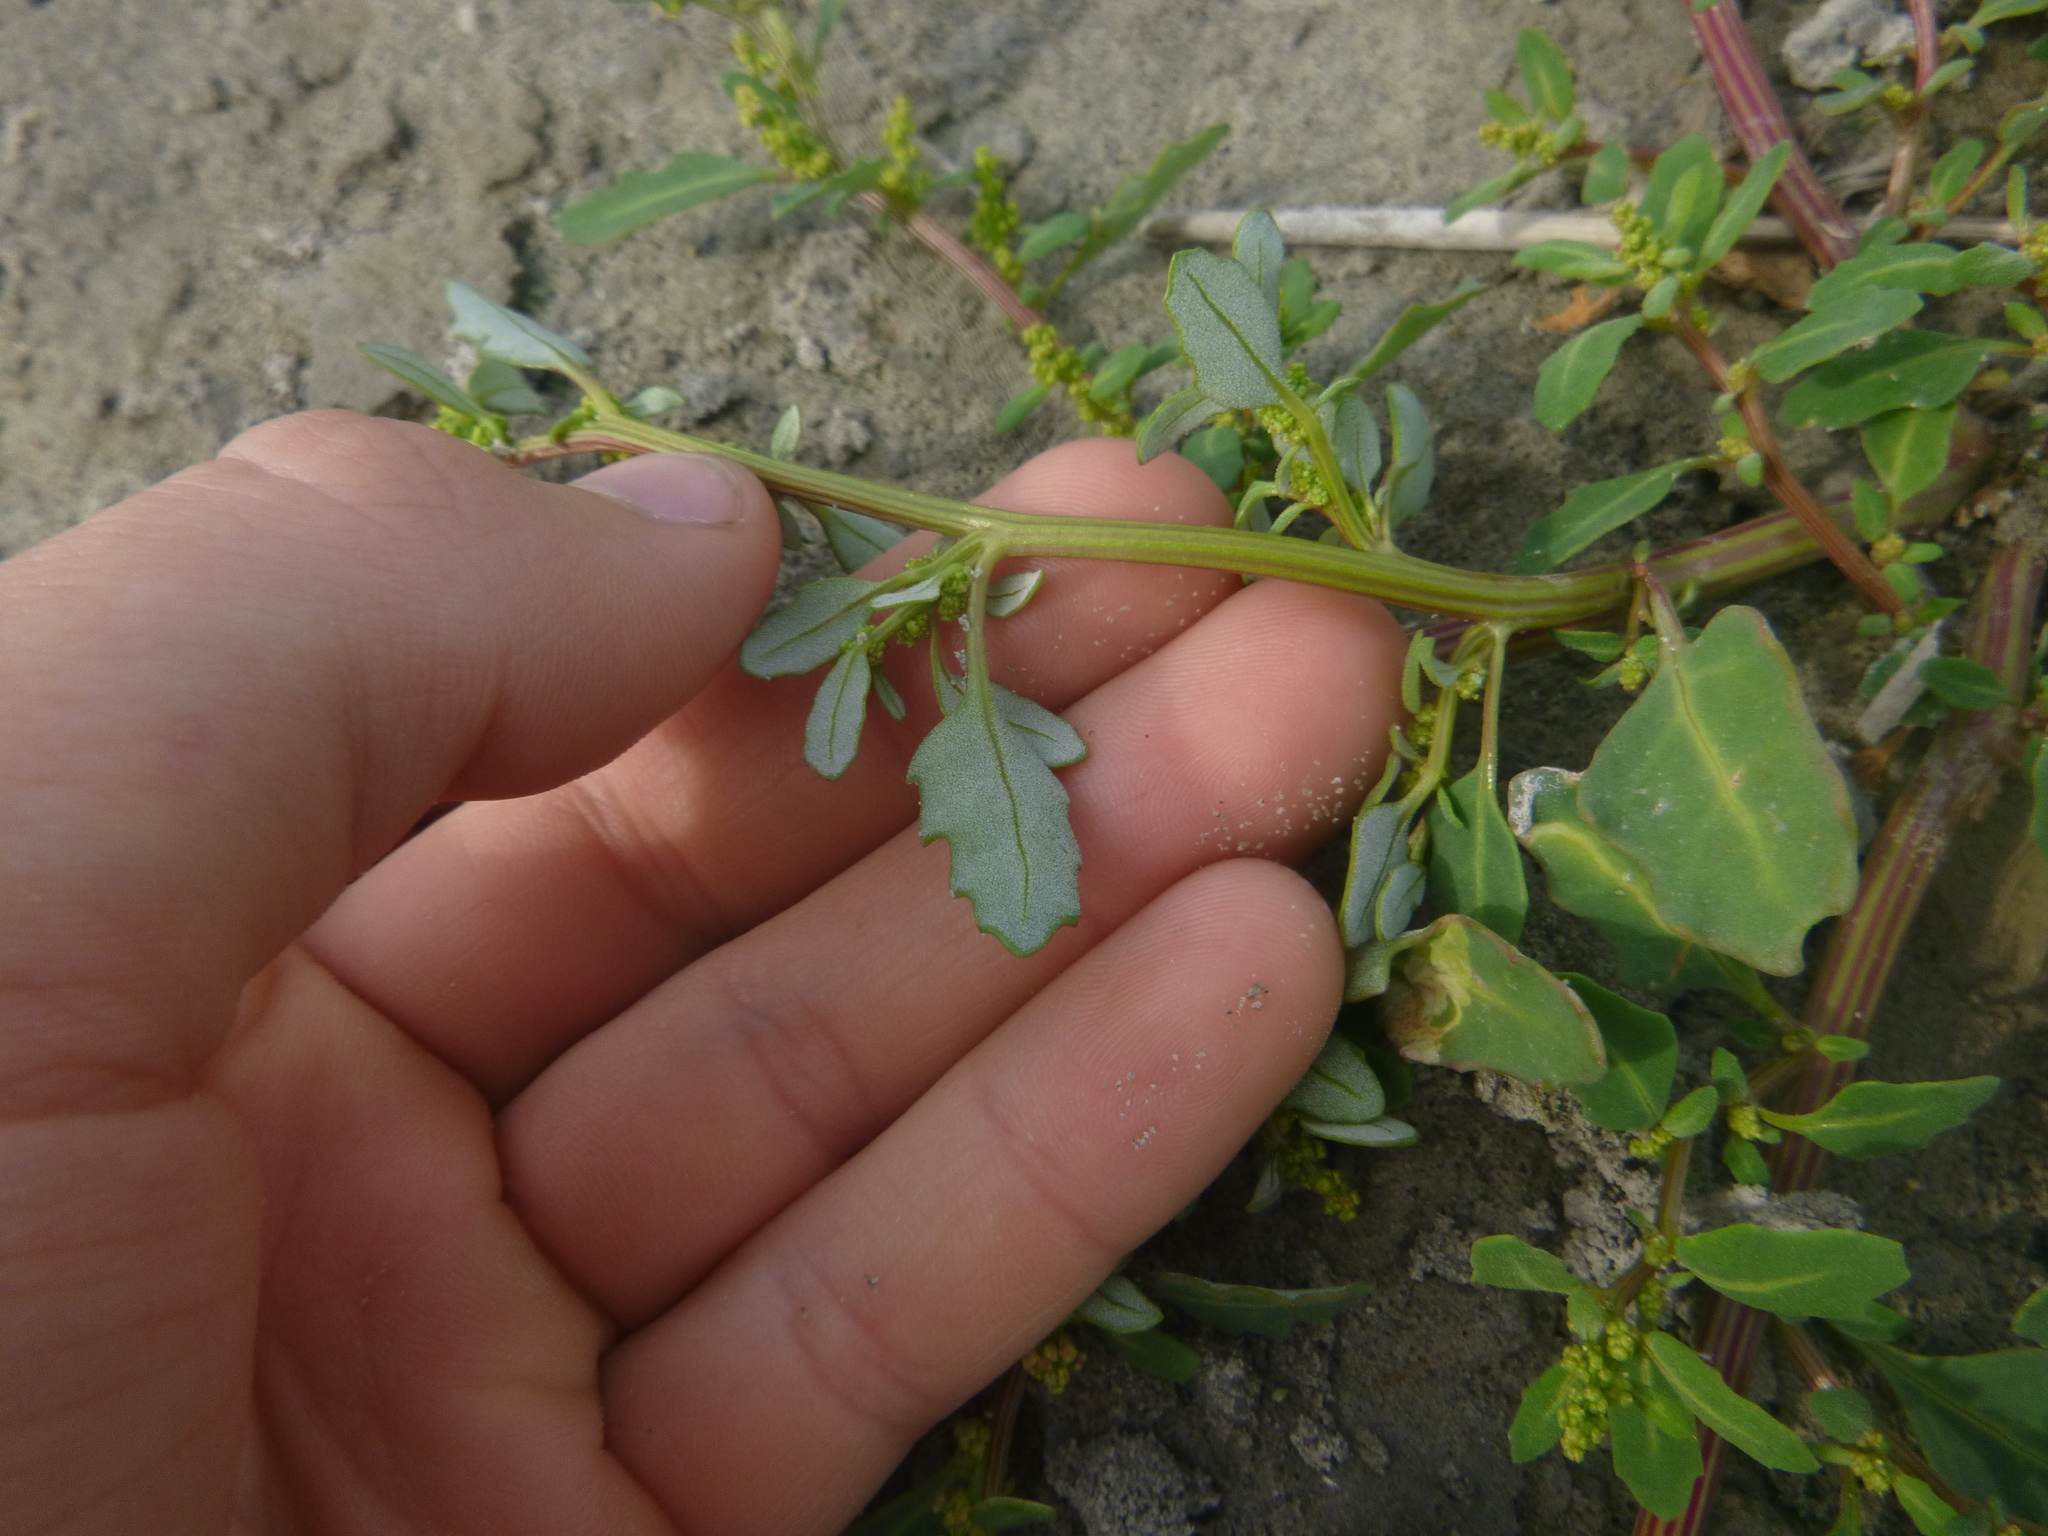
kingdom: Plantae
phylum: Tracheophyta
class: Magnoliopsida
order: Caryophyllales
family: Amaranthaceae
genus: Oxybasis
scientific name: Oxybasis glauca
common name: Glaucous goosefoot
